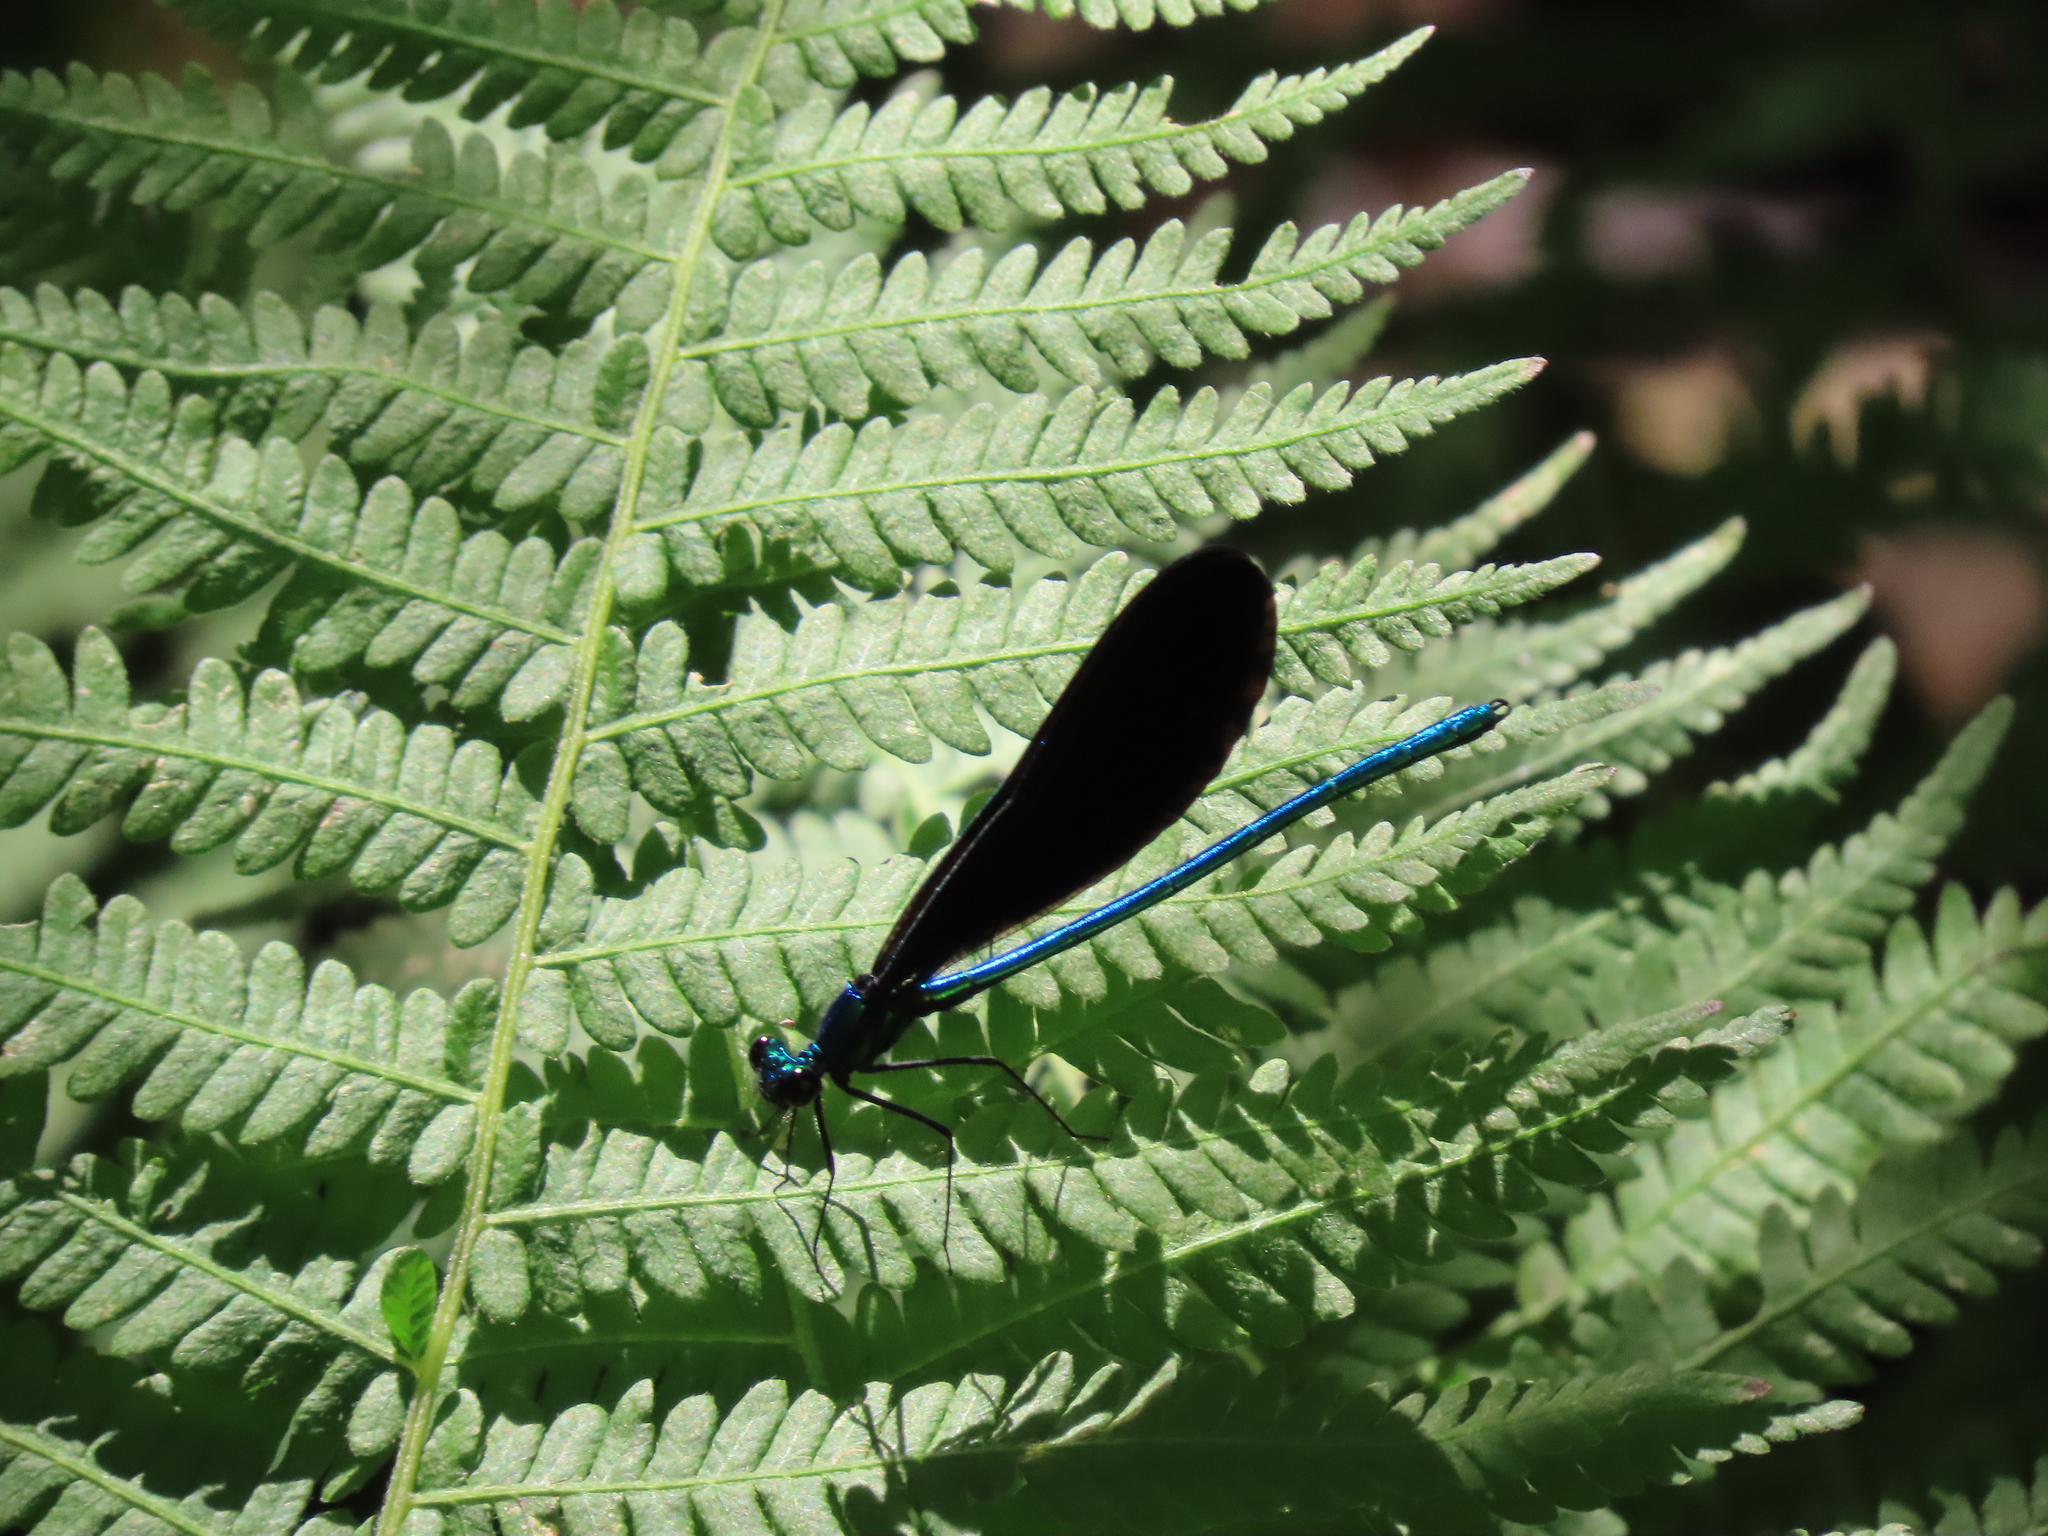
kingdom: Animalia
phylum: Arthropoda
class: Insecta
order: Odonata
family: Calopterygidae
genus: Calopteryx
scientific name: Calopteryx maculata
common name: Ebony jewelwing
